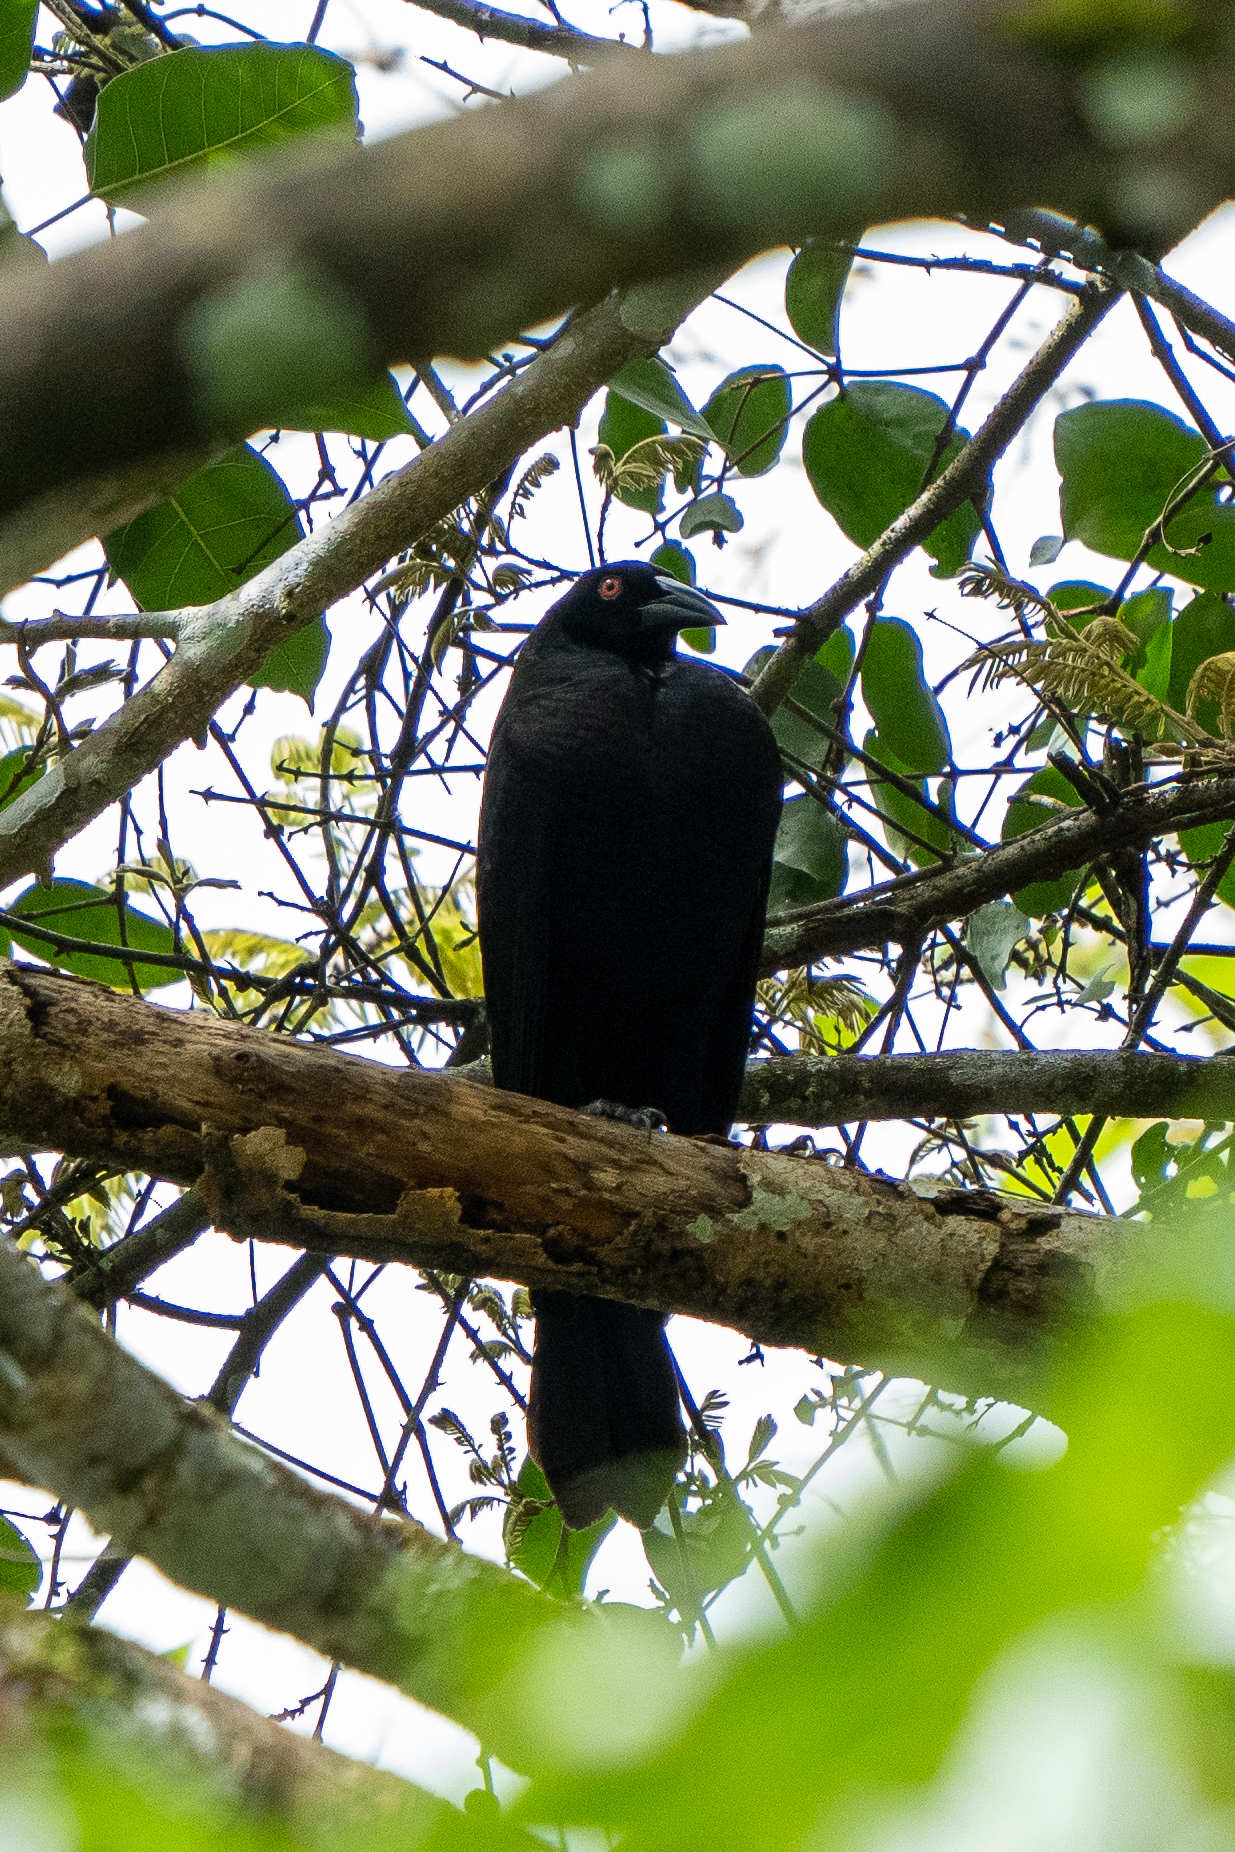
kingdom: Animalia
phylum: Chordata
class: Aves
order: Passeriformes
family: Icteridae
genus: Molothrus
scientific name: Molothrus oryzivorus
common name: Giant cowbird
